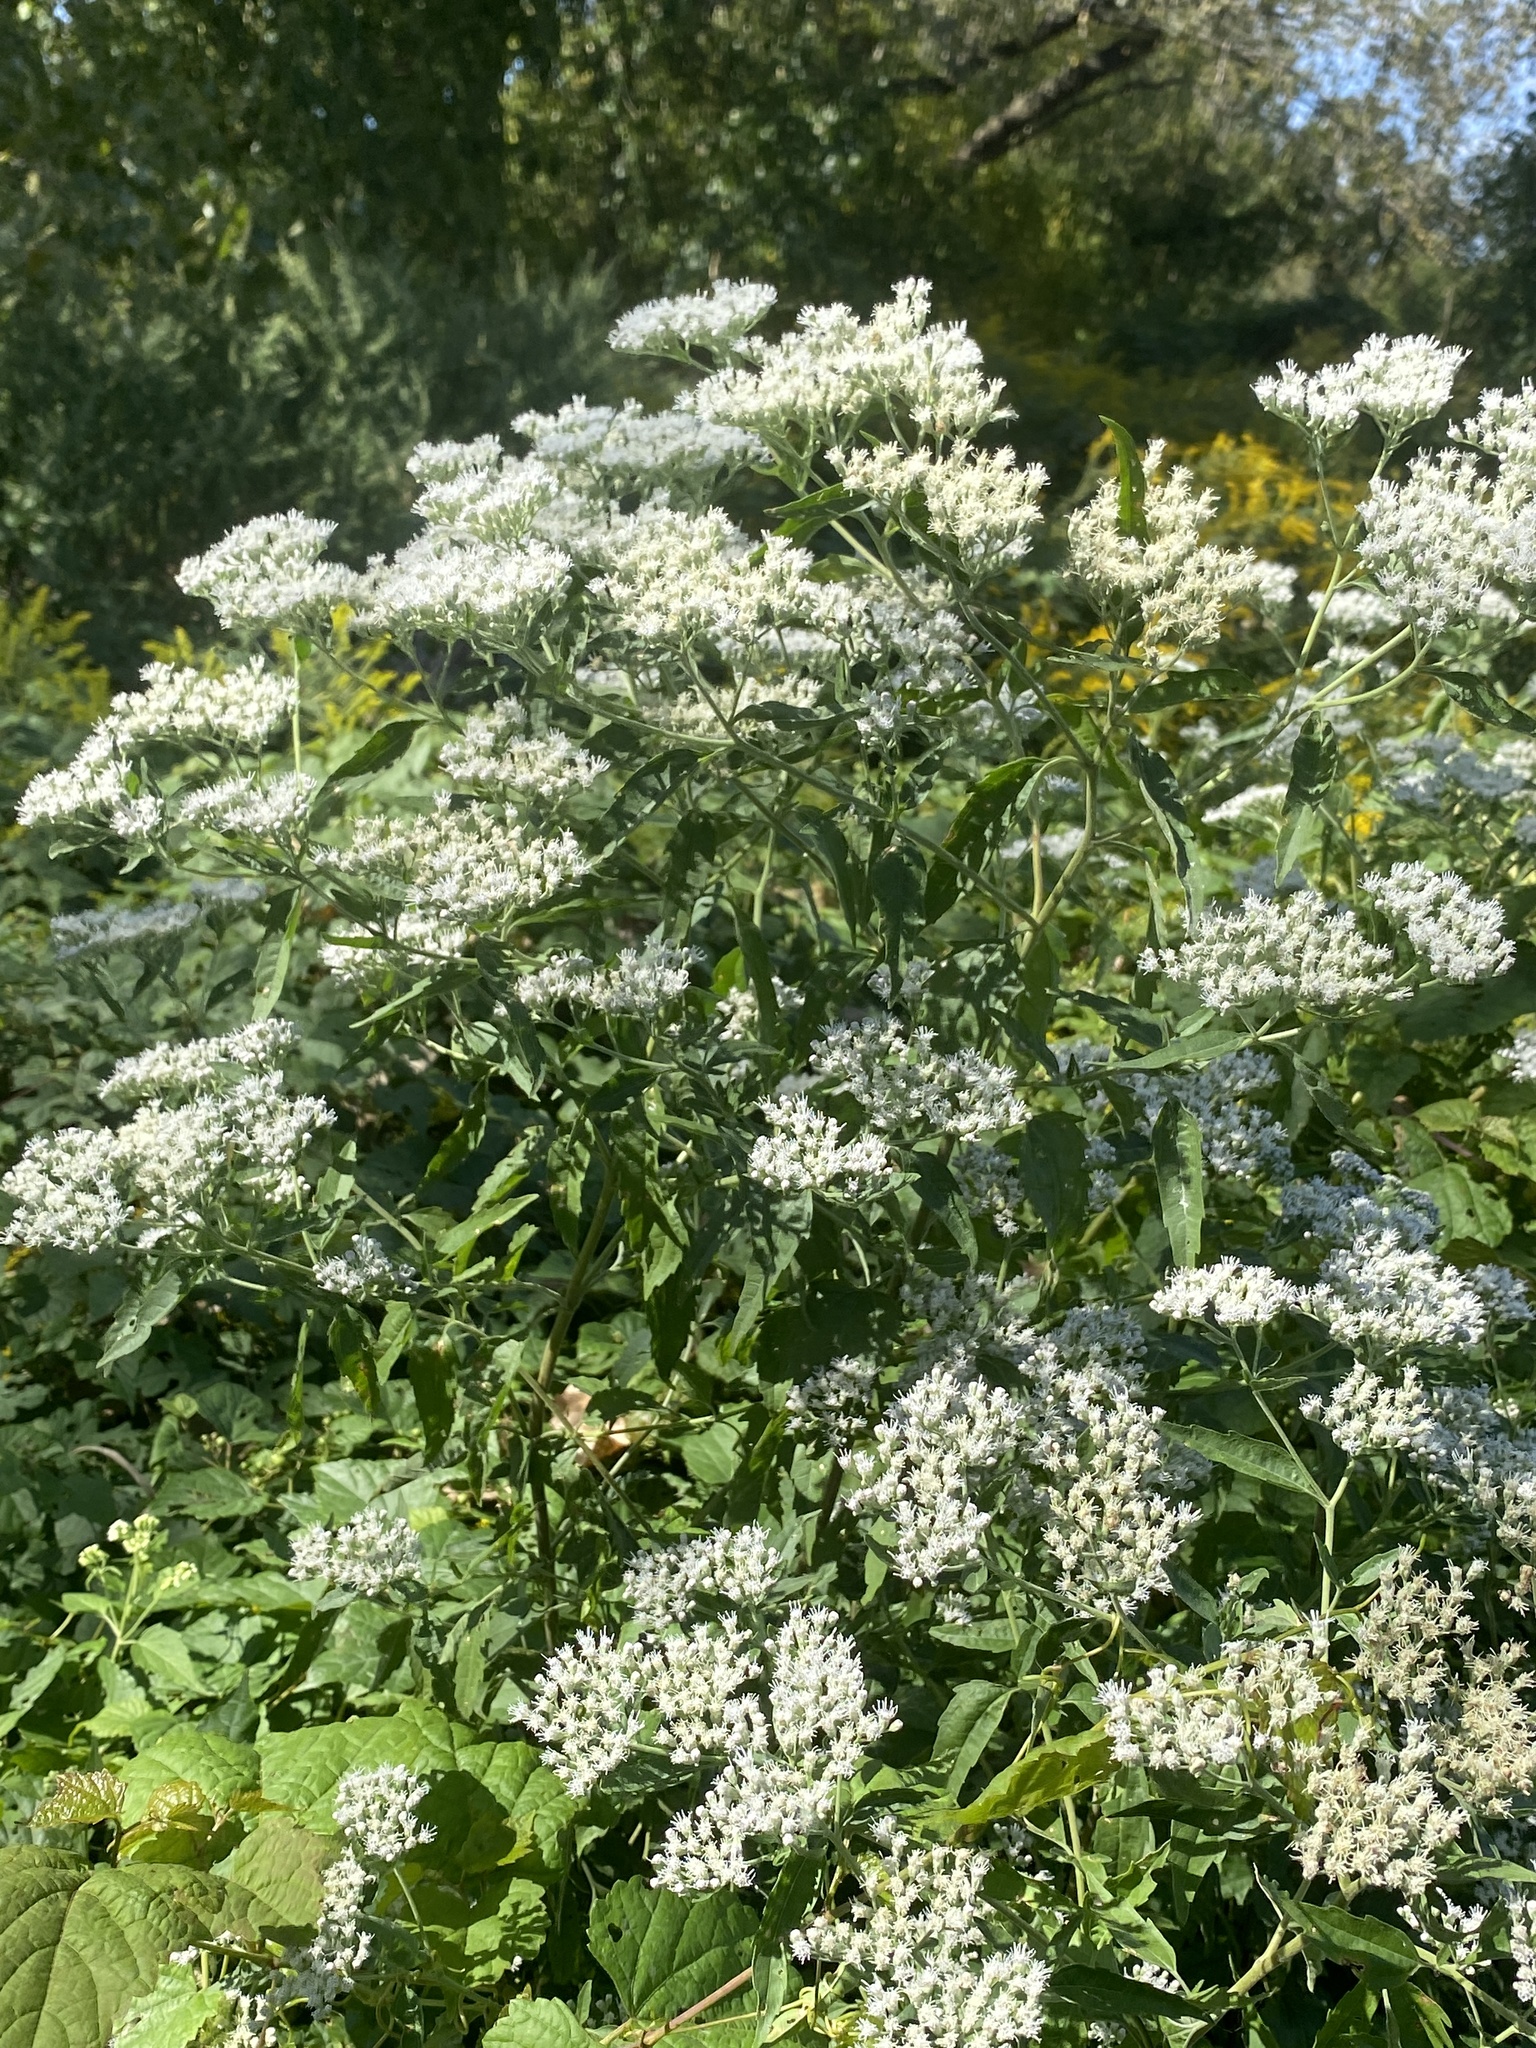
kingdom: Plantae
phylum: Tracheophyta
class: Magnoliopsida
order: Asterales
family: Asteraceae
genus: Eupatorium
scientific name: Eupatorium serotinum
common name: Late boneset
